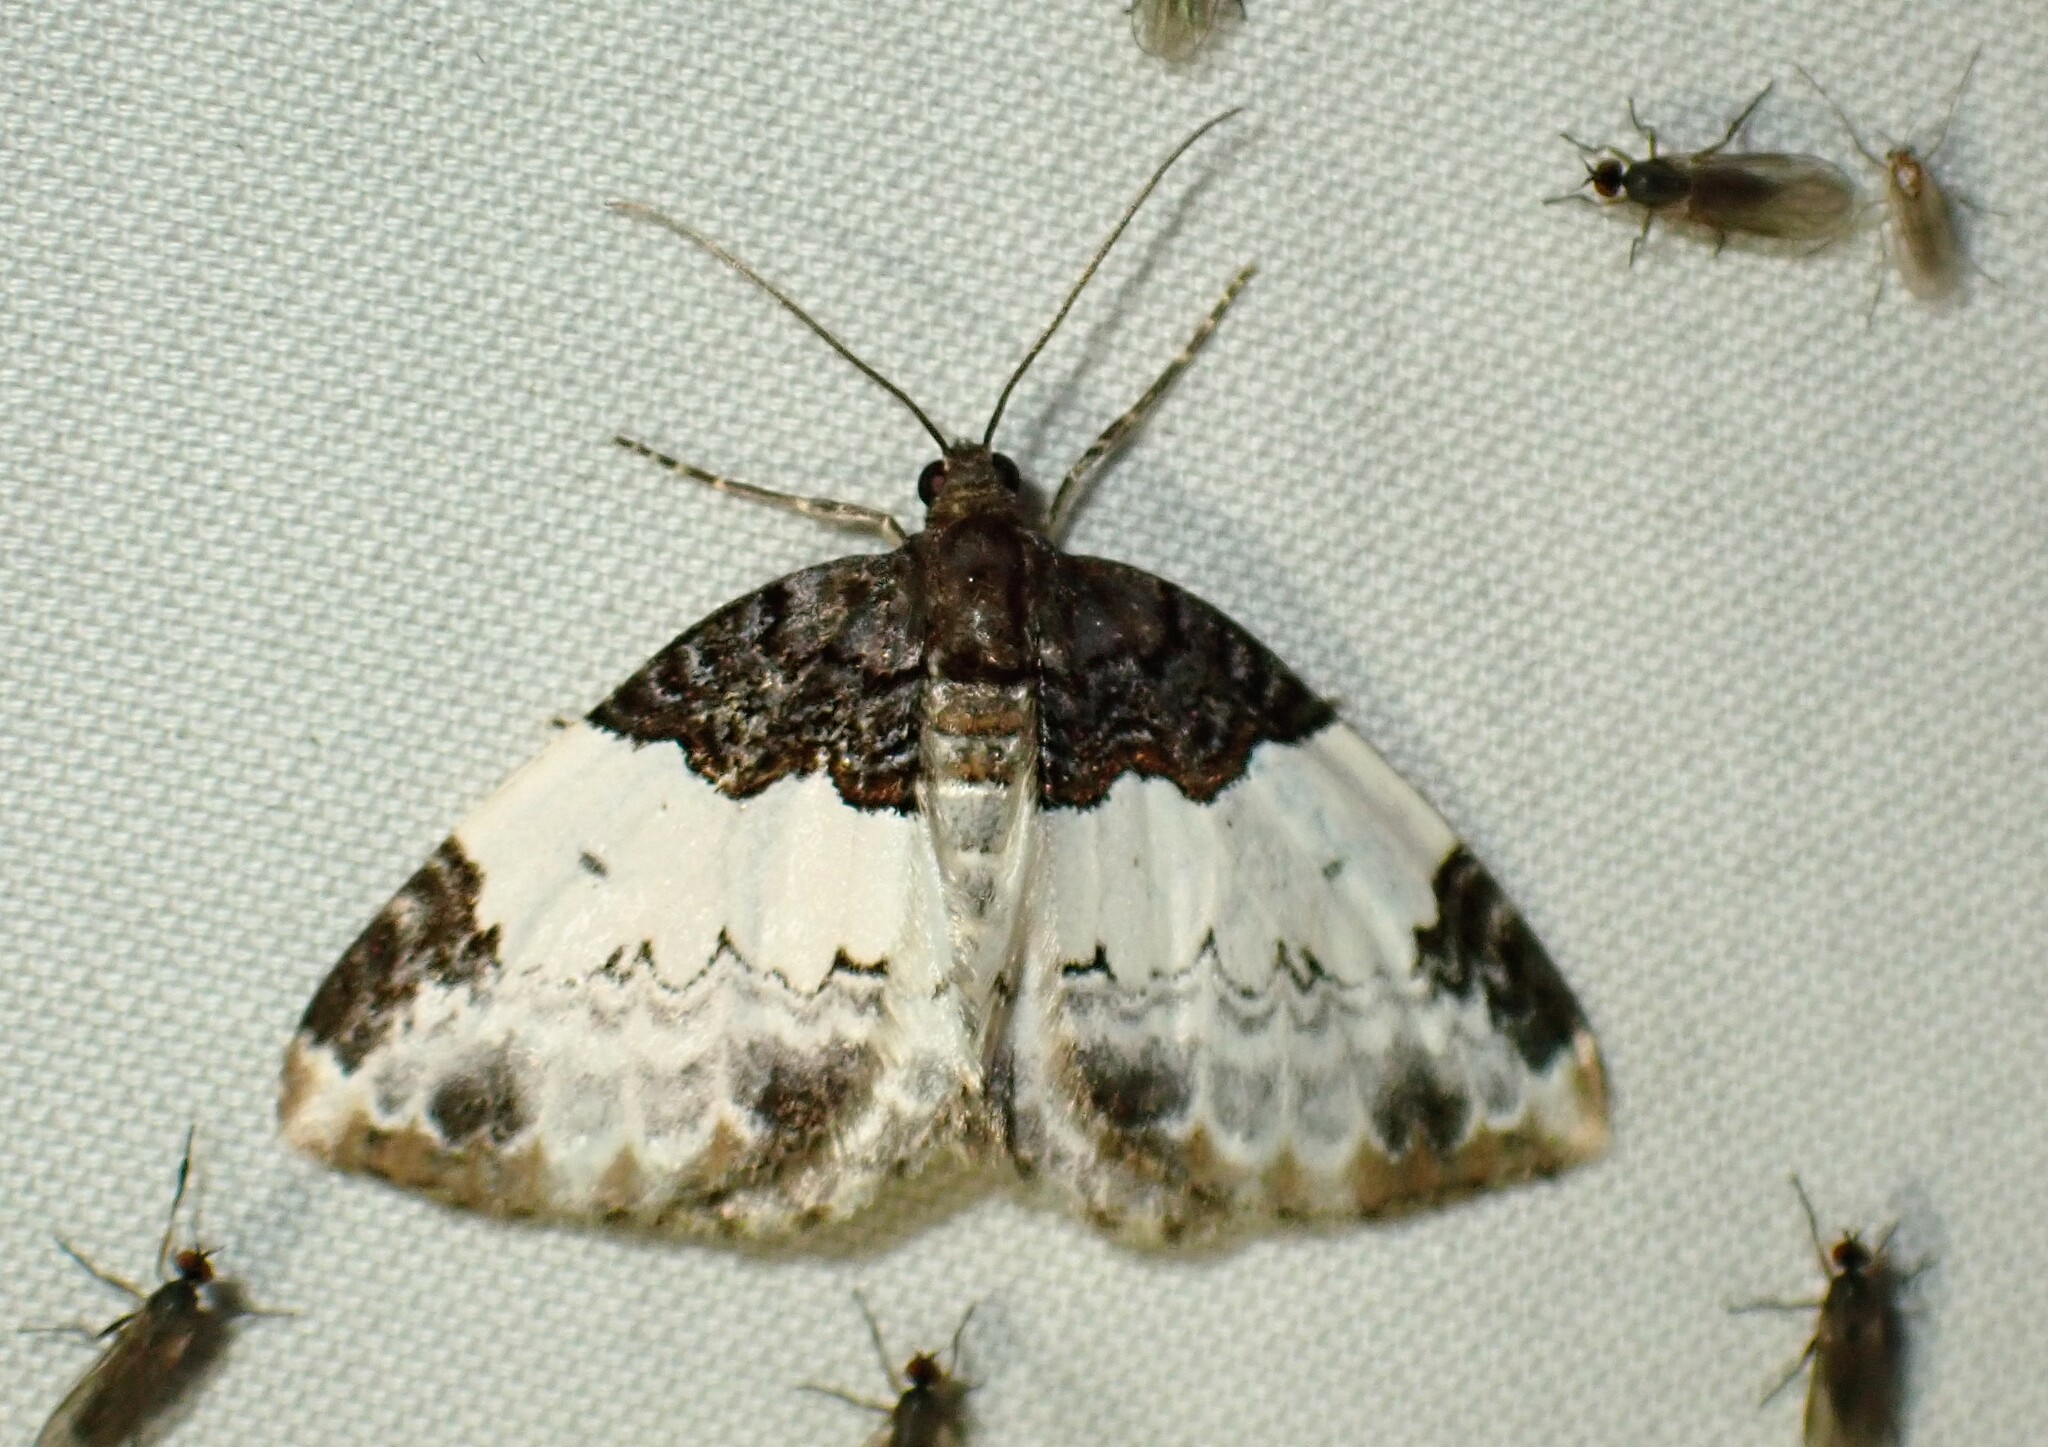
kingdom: Animalia
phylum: Arthropoda
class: Insecta
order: Lepidoptera
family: Geometridae
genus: Mesoleuca
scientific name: Mesoleuca ruficillata
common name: White-ribboned carpet moth
